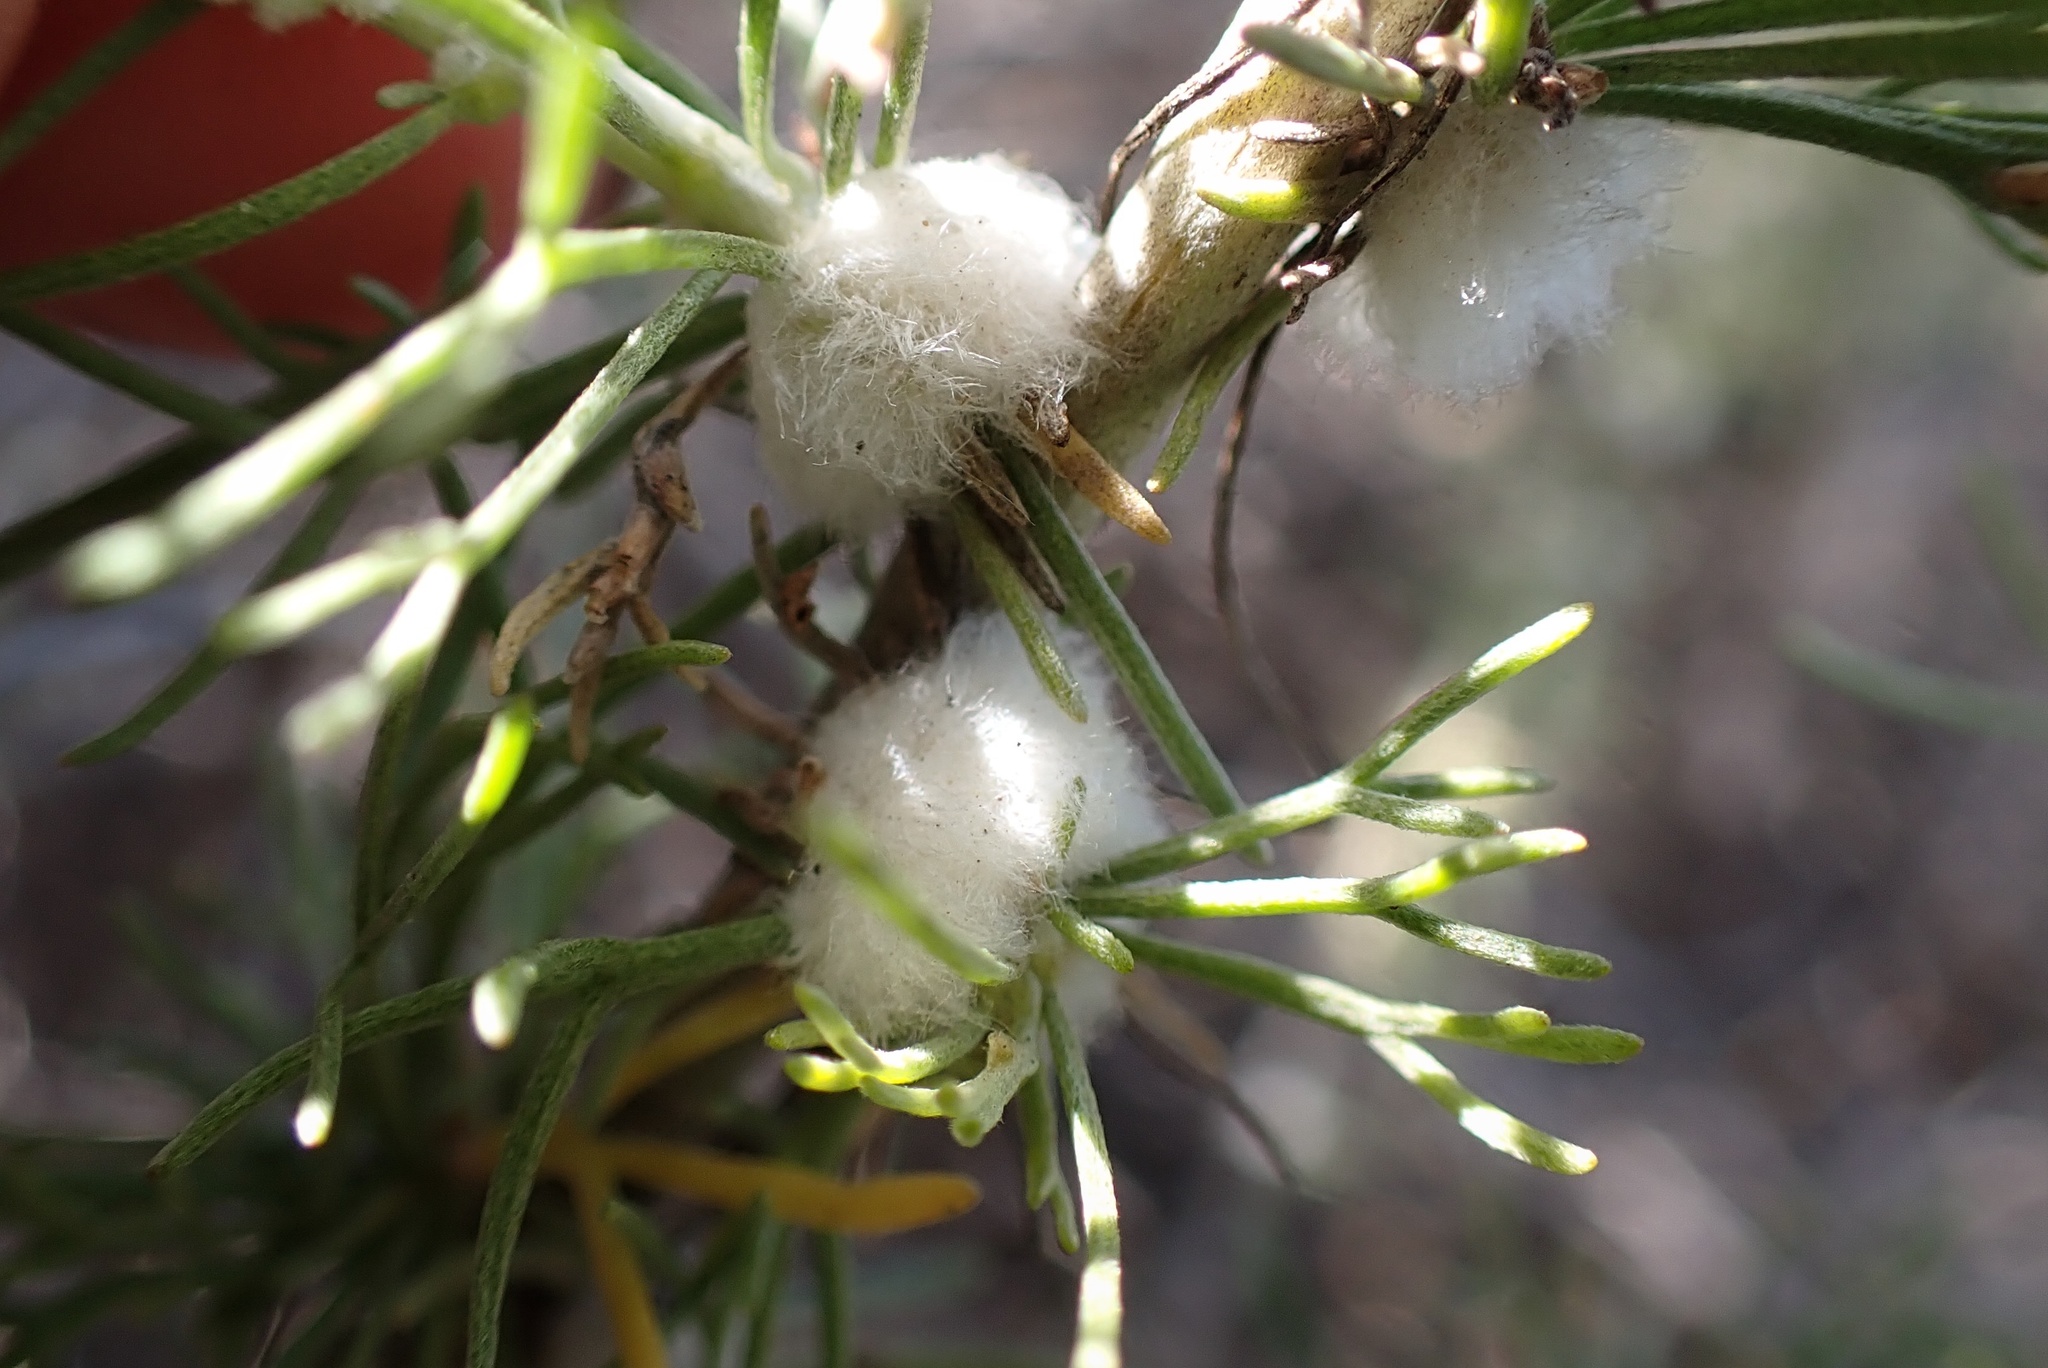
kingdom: Animalia
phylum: Arthropoda
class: Insecta
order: Diptera
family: Cecidomyiidae
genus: Rhopalomyia
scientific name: Rhopalomyia floccosa
